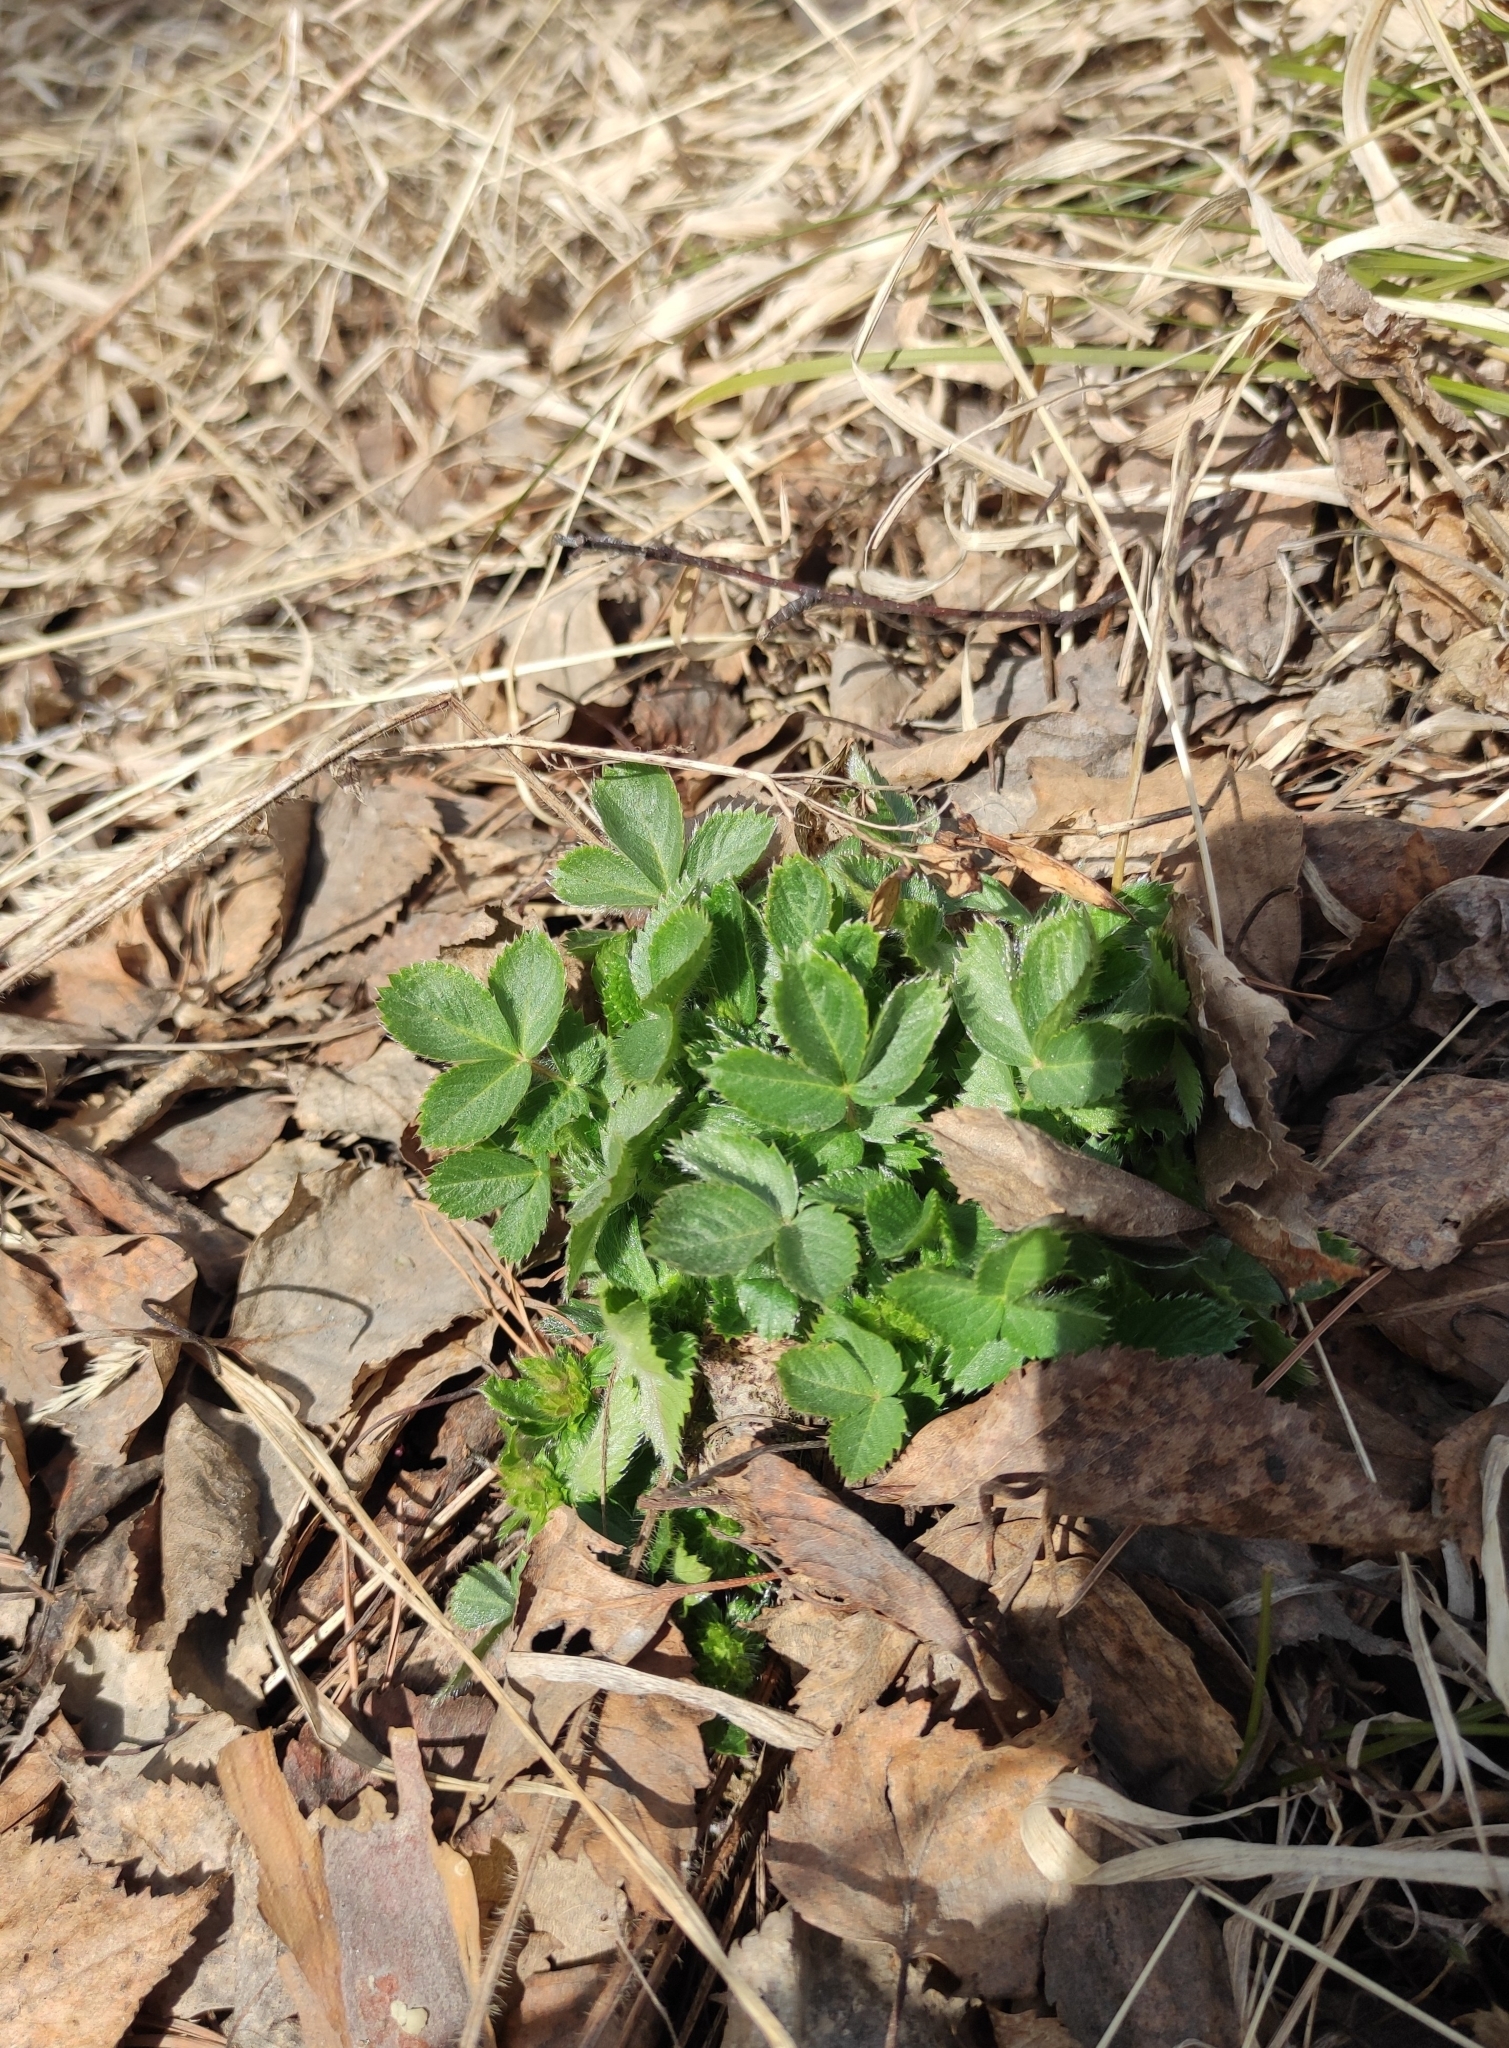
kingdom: Plantae
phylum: Tracheophyta
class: Magnoliopsida
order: Rosales
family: Rosaceae
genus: Potentilla
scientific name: Potentilla fragarioides
